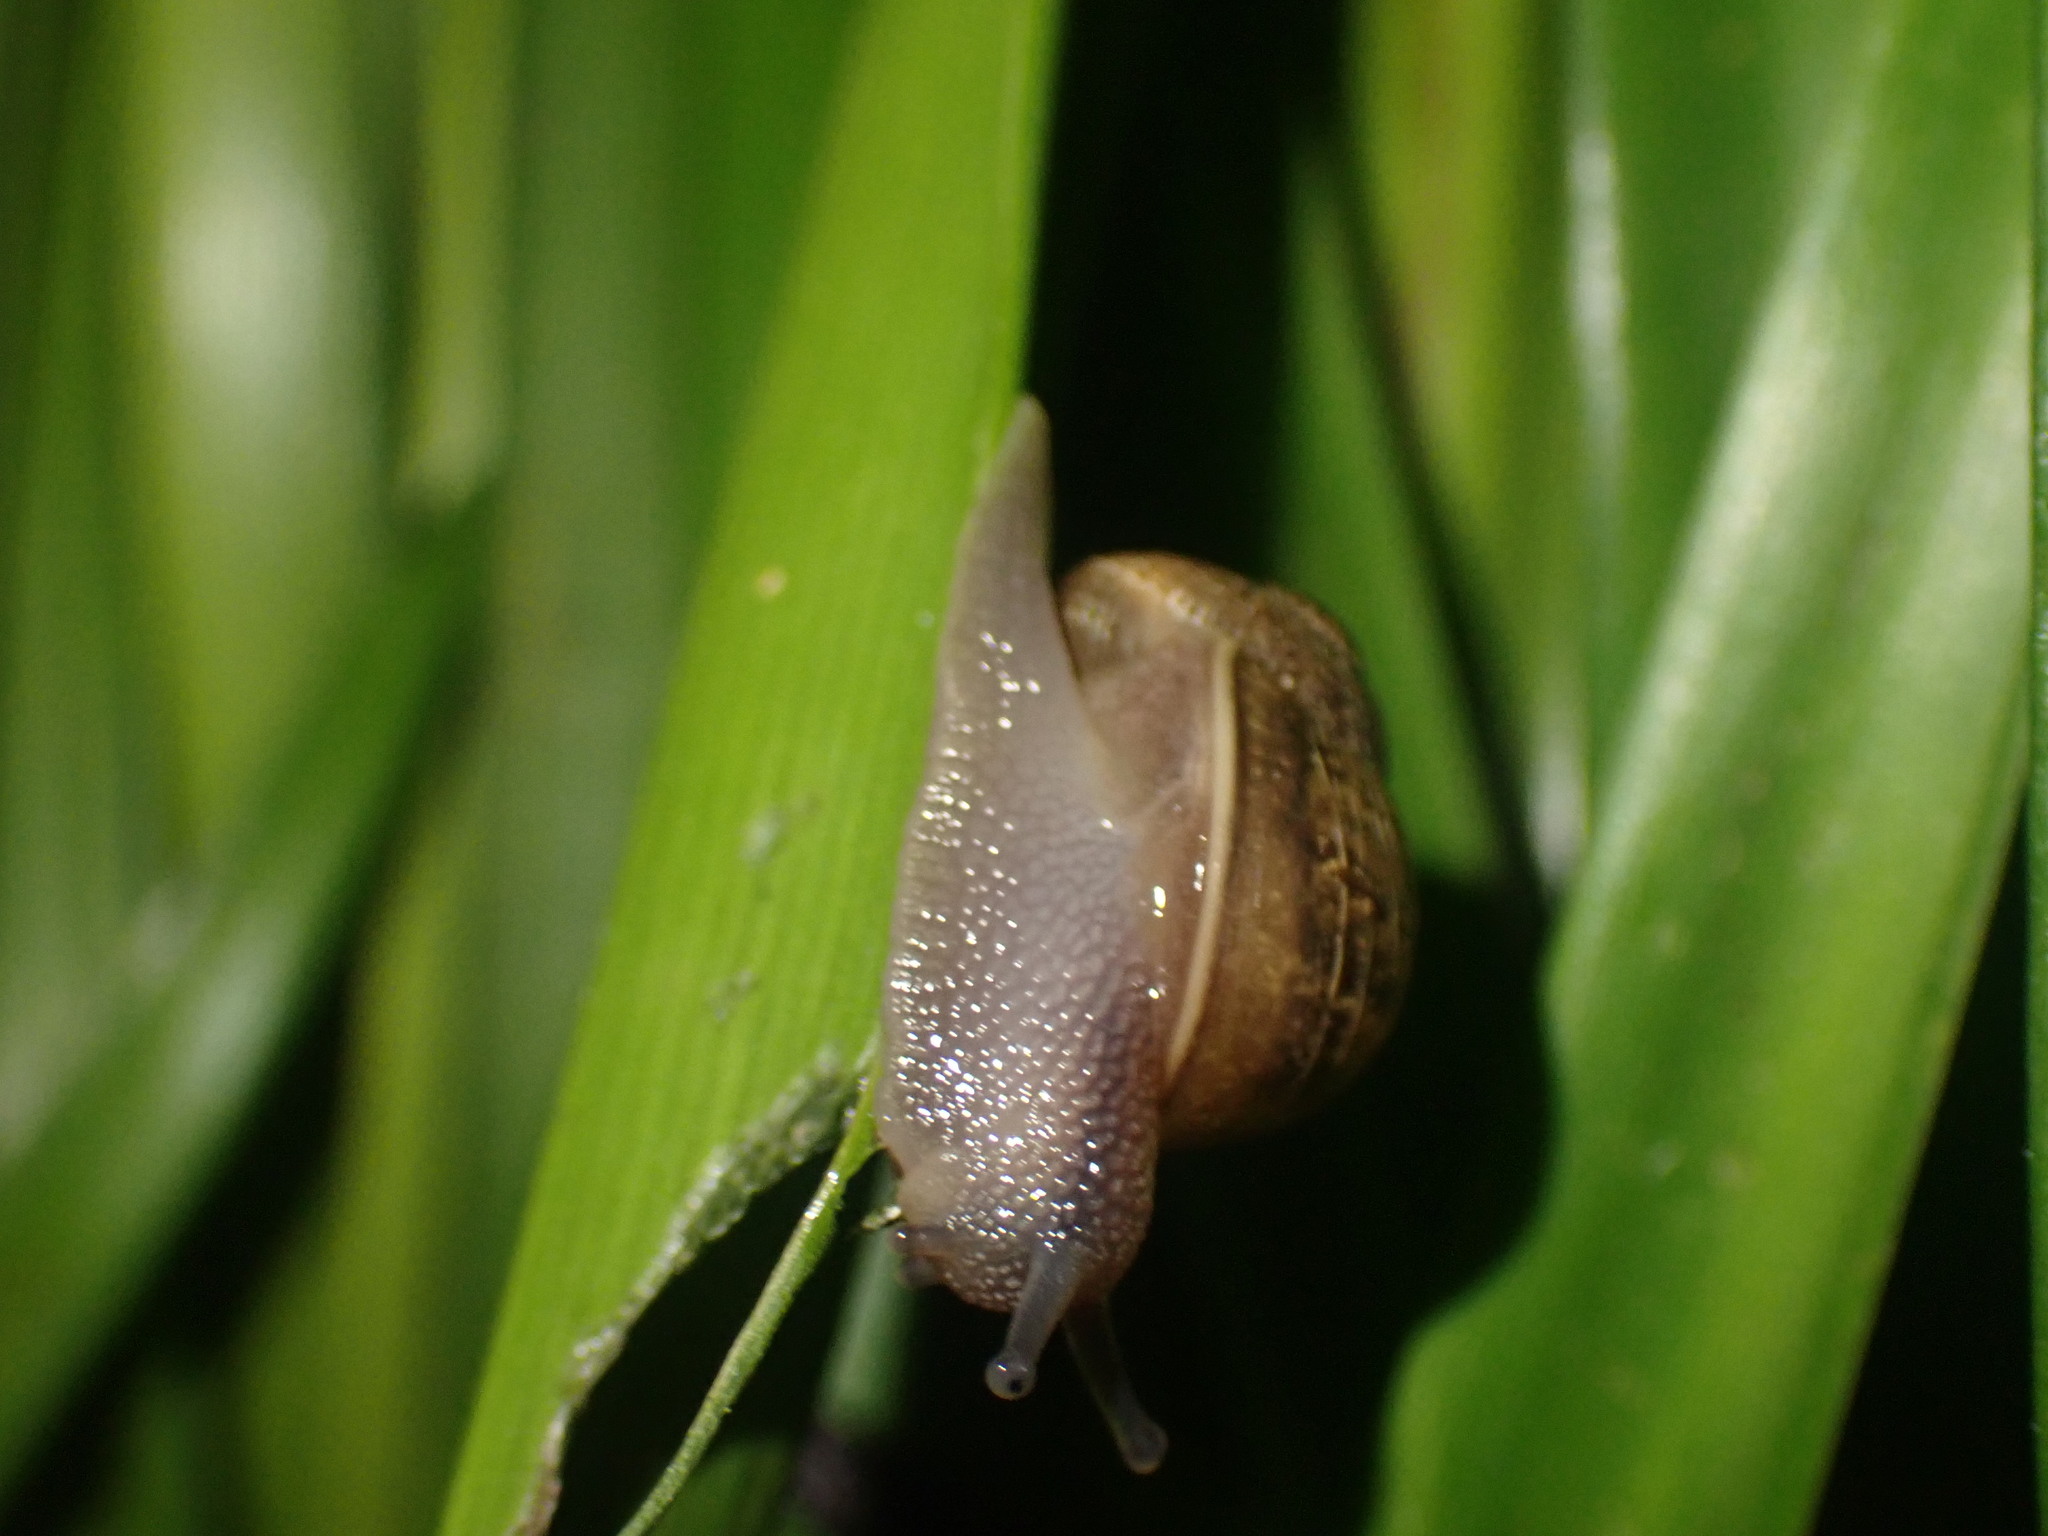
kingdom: Animalia
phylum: Mollusca
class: Gastropoda
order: Stylommatophora
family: Helicidae
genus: Cornu
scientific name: Cornu aspersum
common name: Brown garden snail
